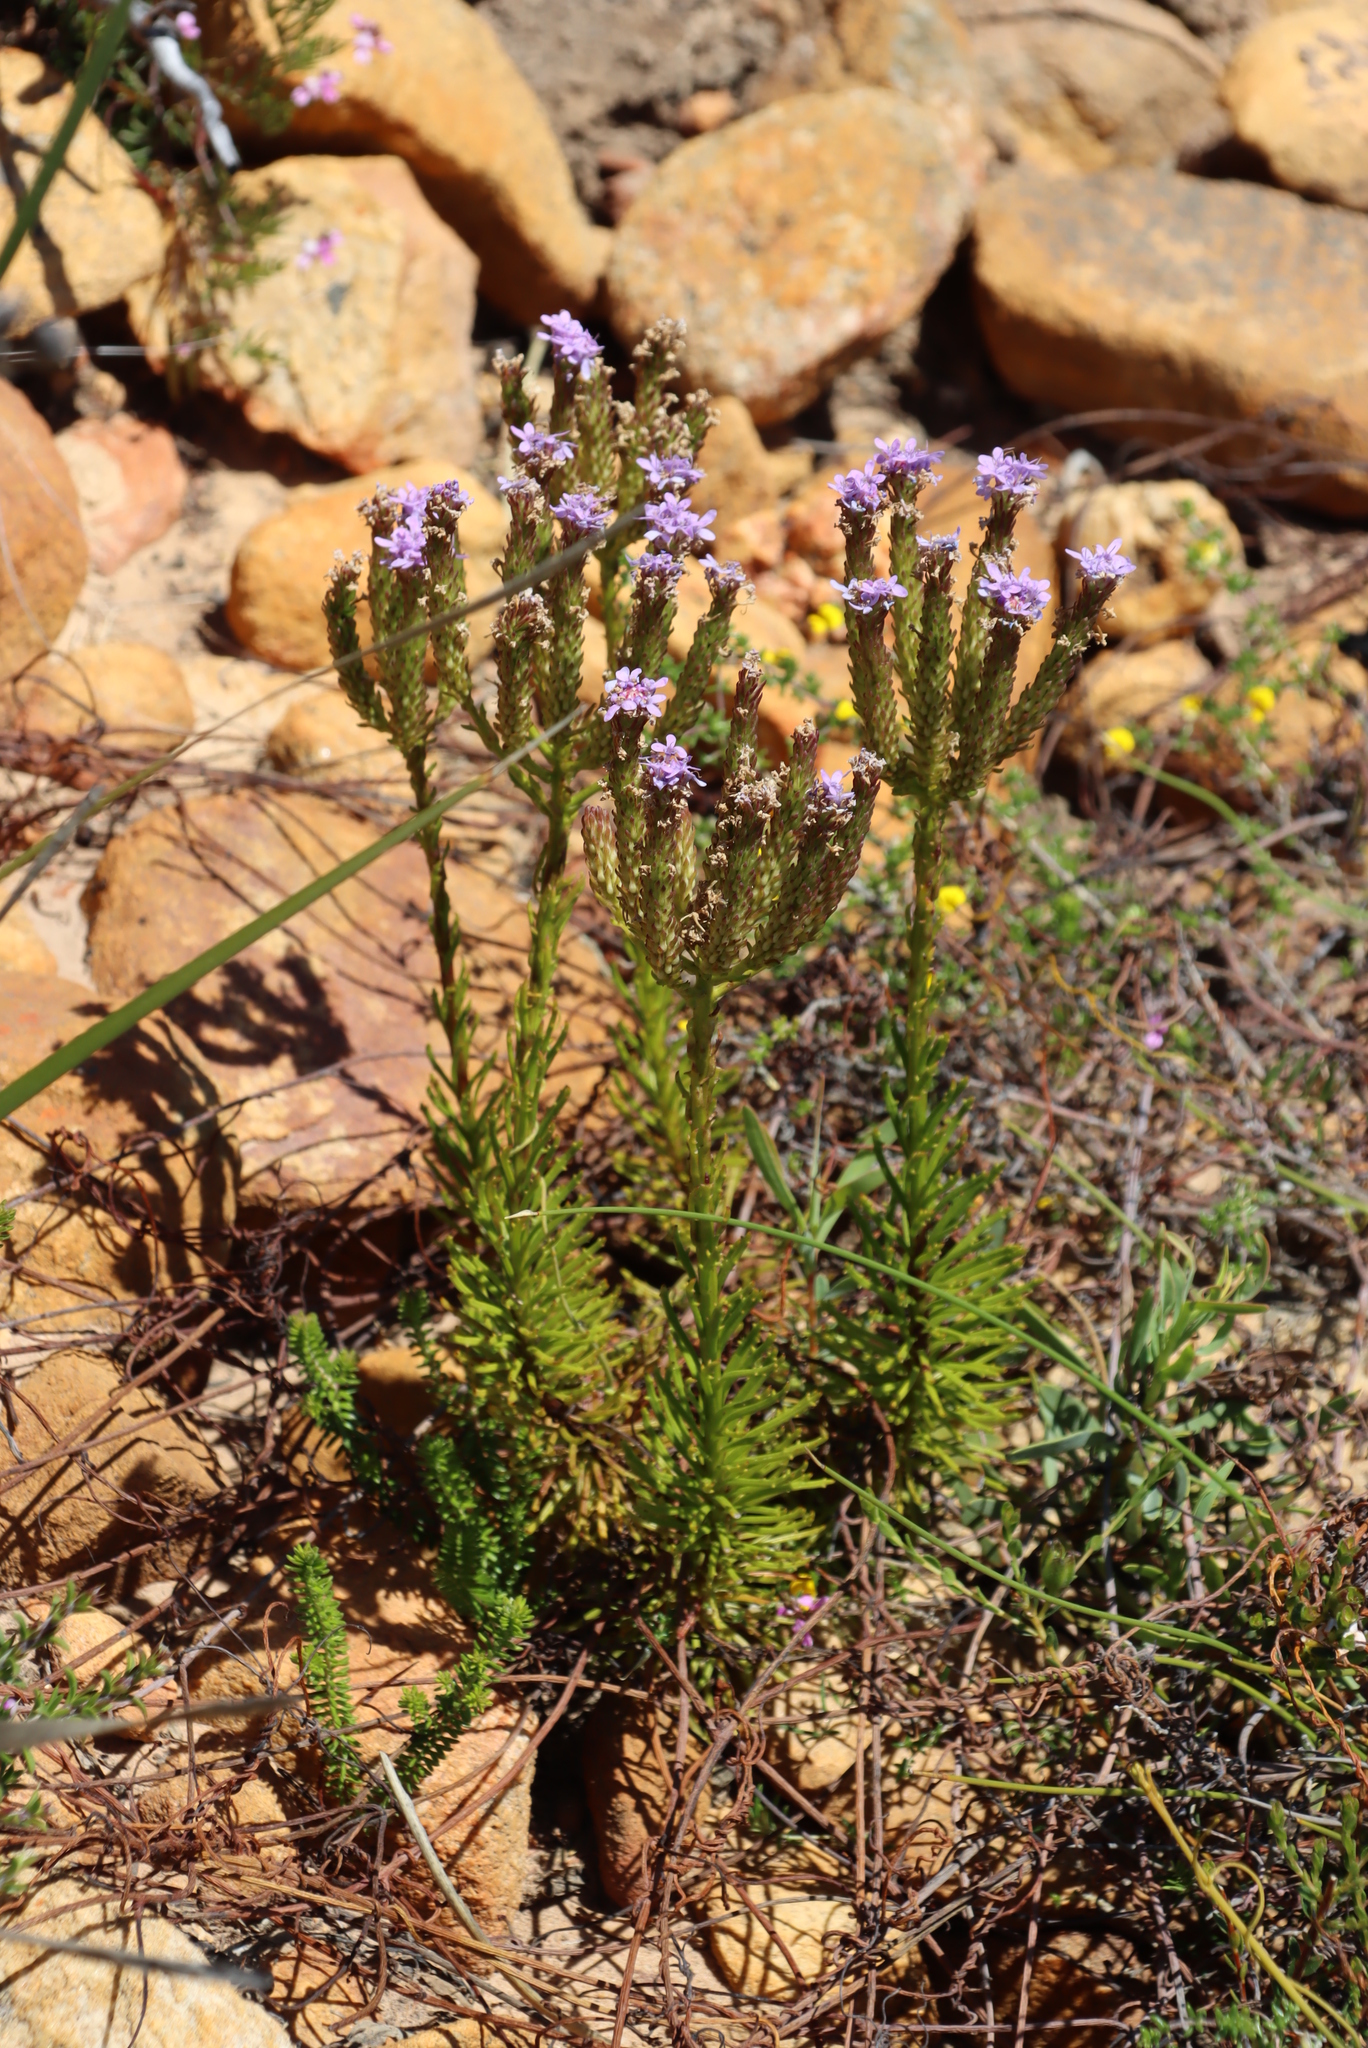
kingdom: Plantae
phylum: Tracheophyta
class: Magnoliopsida
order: Lamiales
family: Scrophulariaceae
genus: Pseudoselago
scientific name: Pseudoselago spuria
